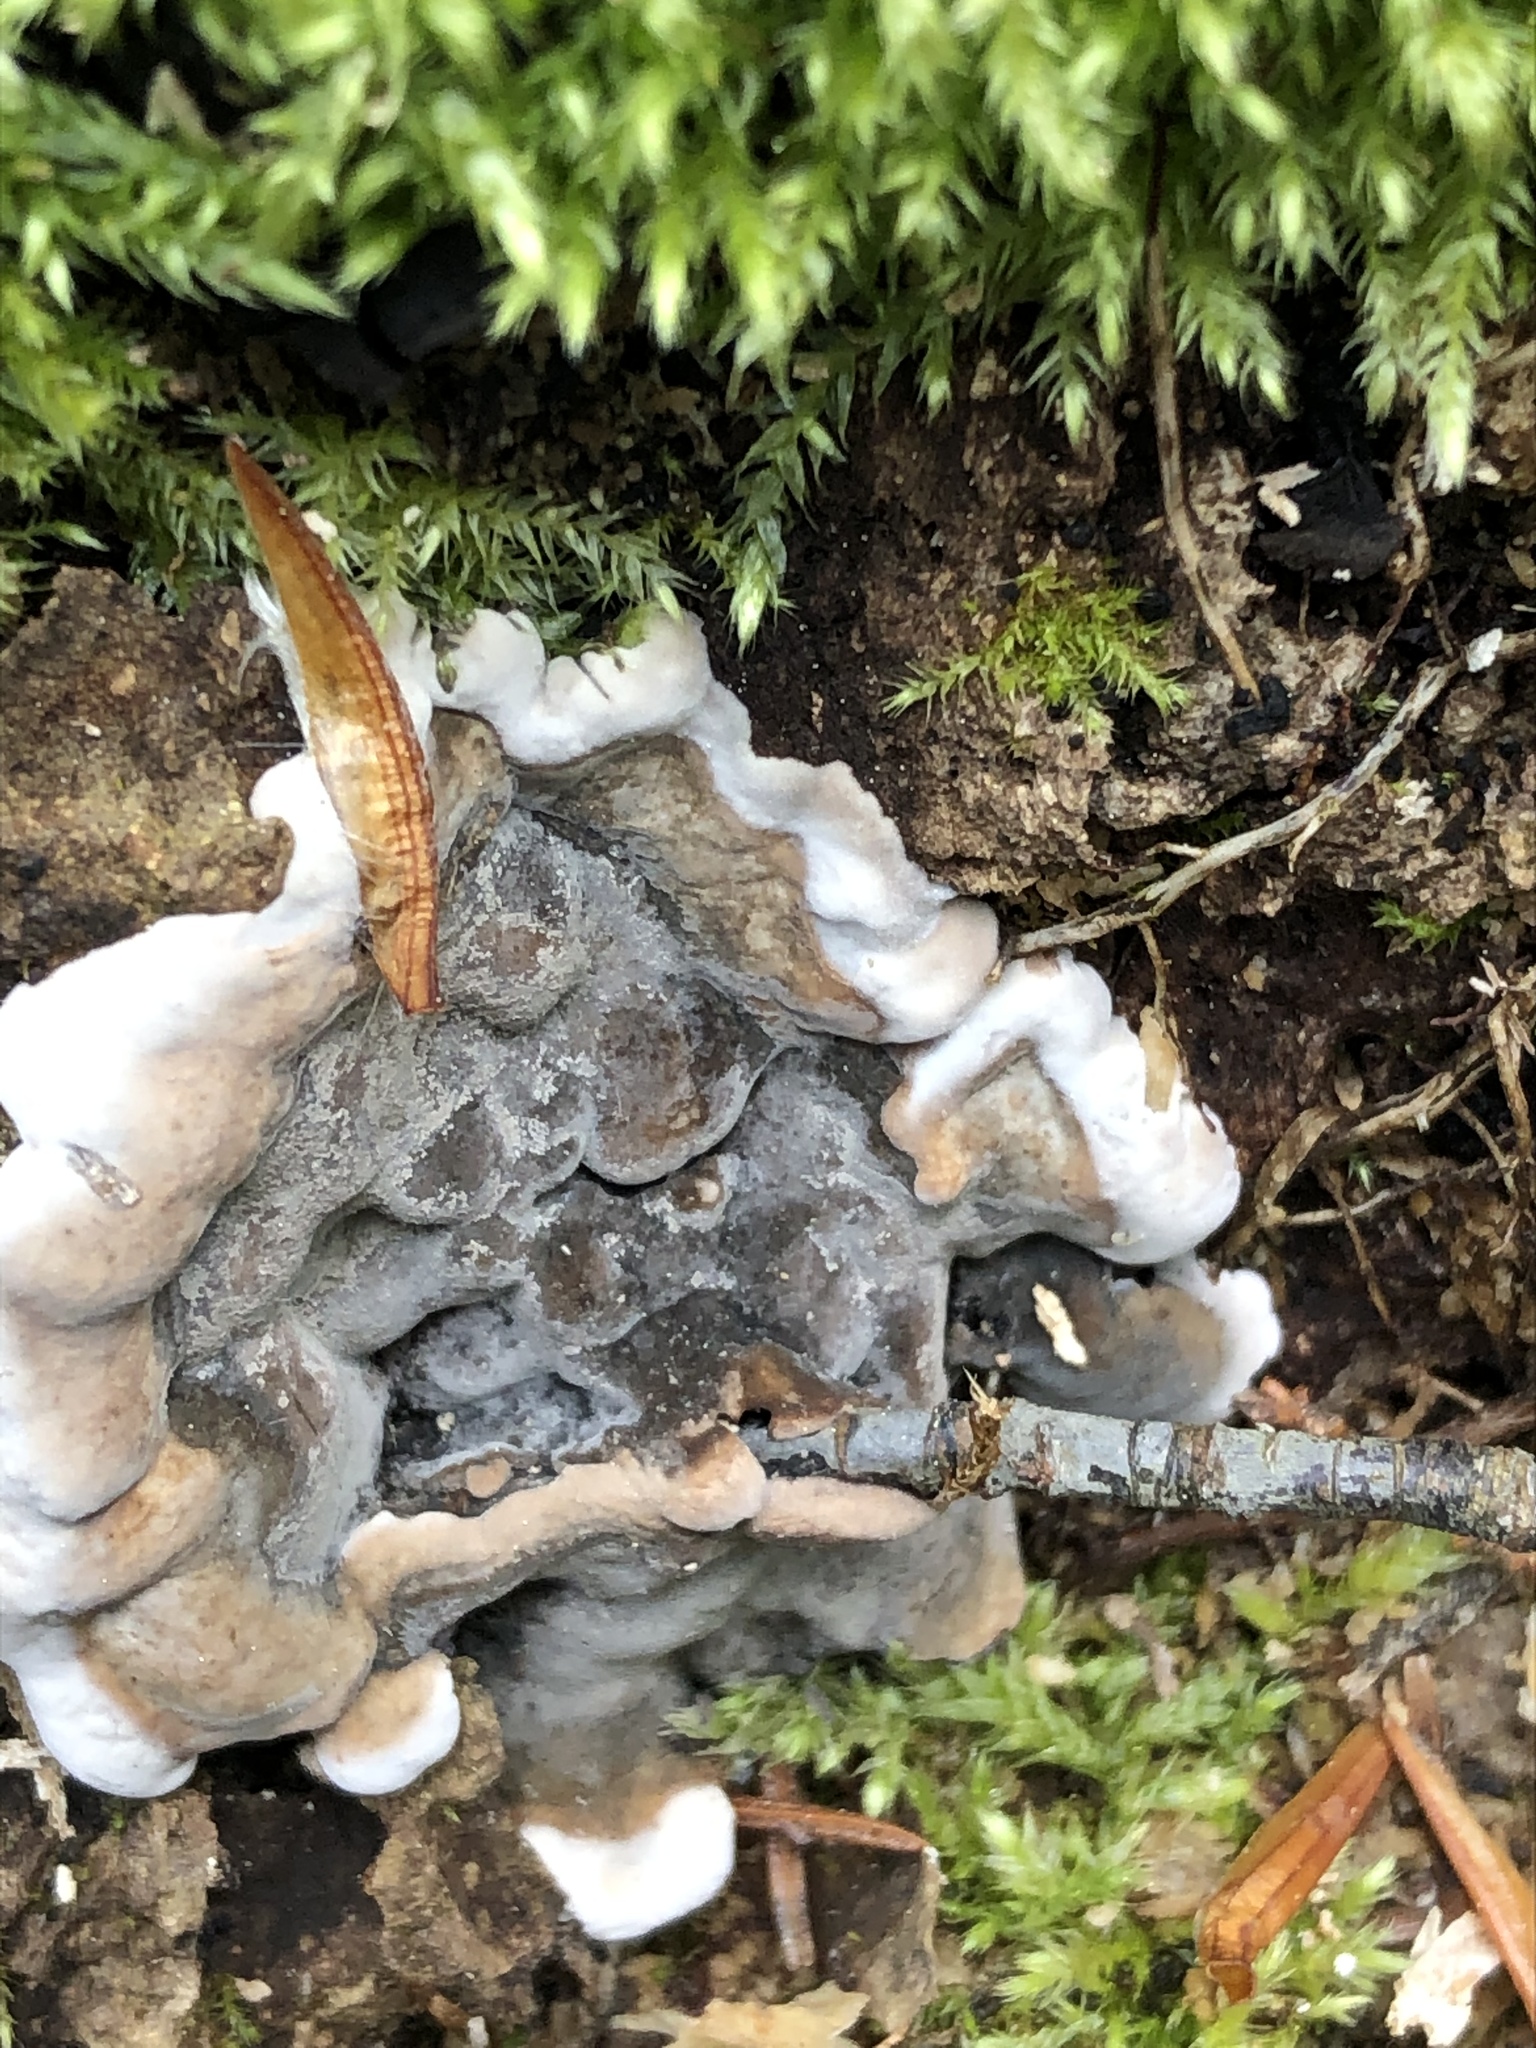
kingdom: Fungi
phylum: Ascomycota
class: Sordariomycetes
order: Xylariales
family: Xylariaceae
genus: Kretzschmaria
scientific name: Kretzschmaria deusta
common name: Brittle cinder
